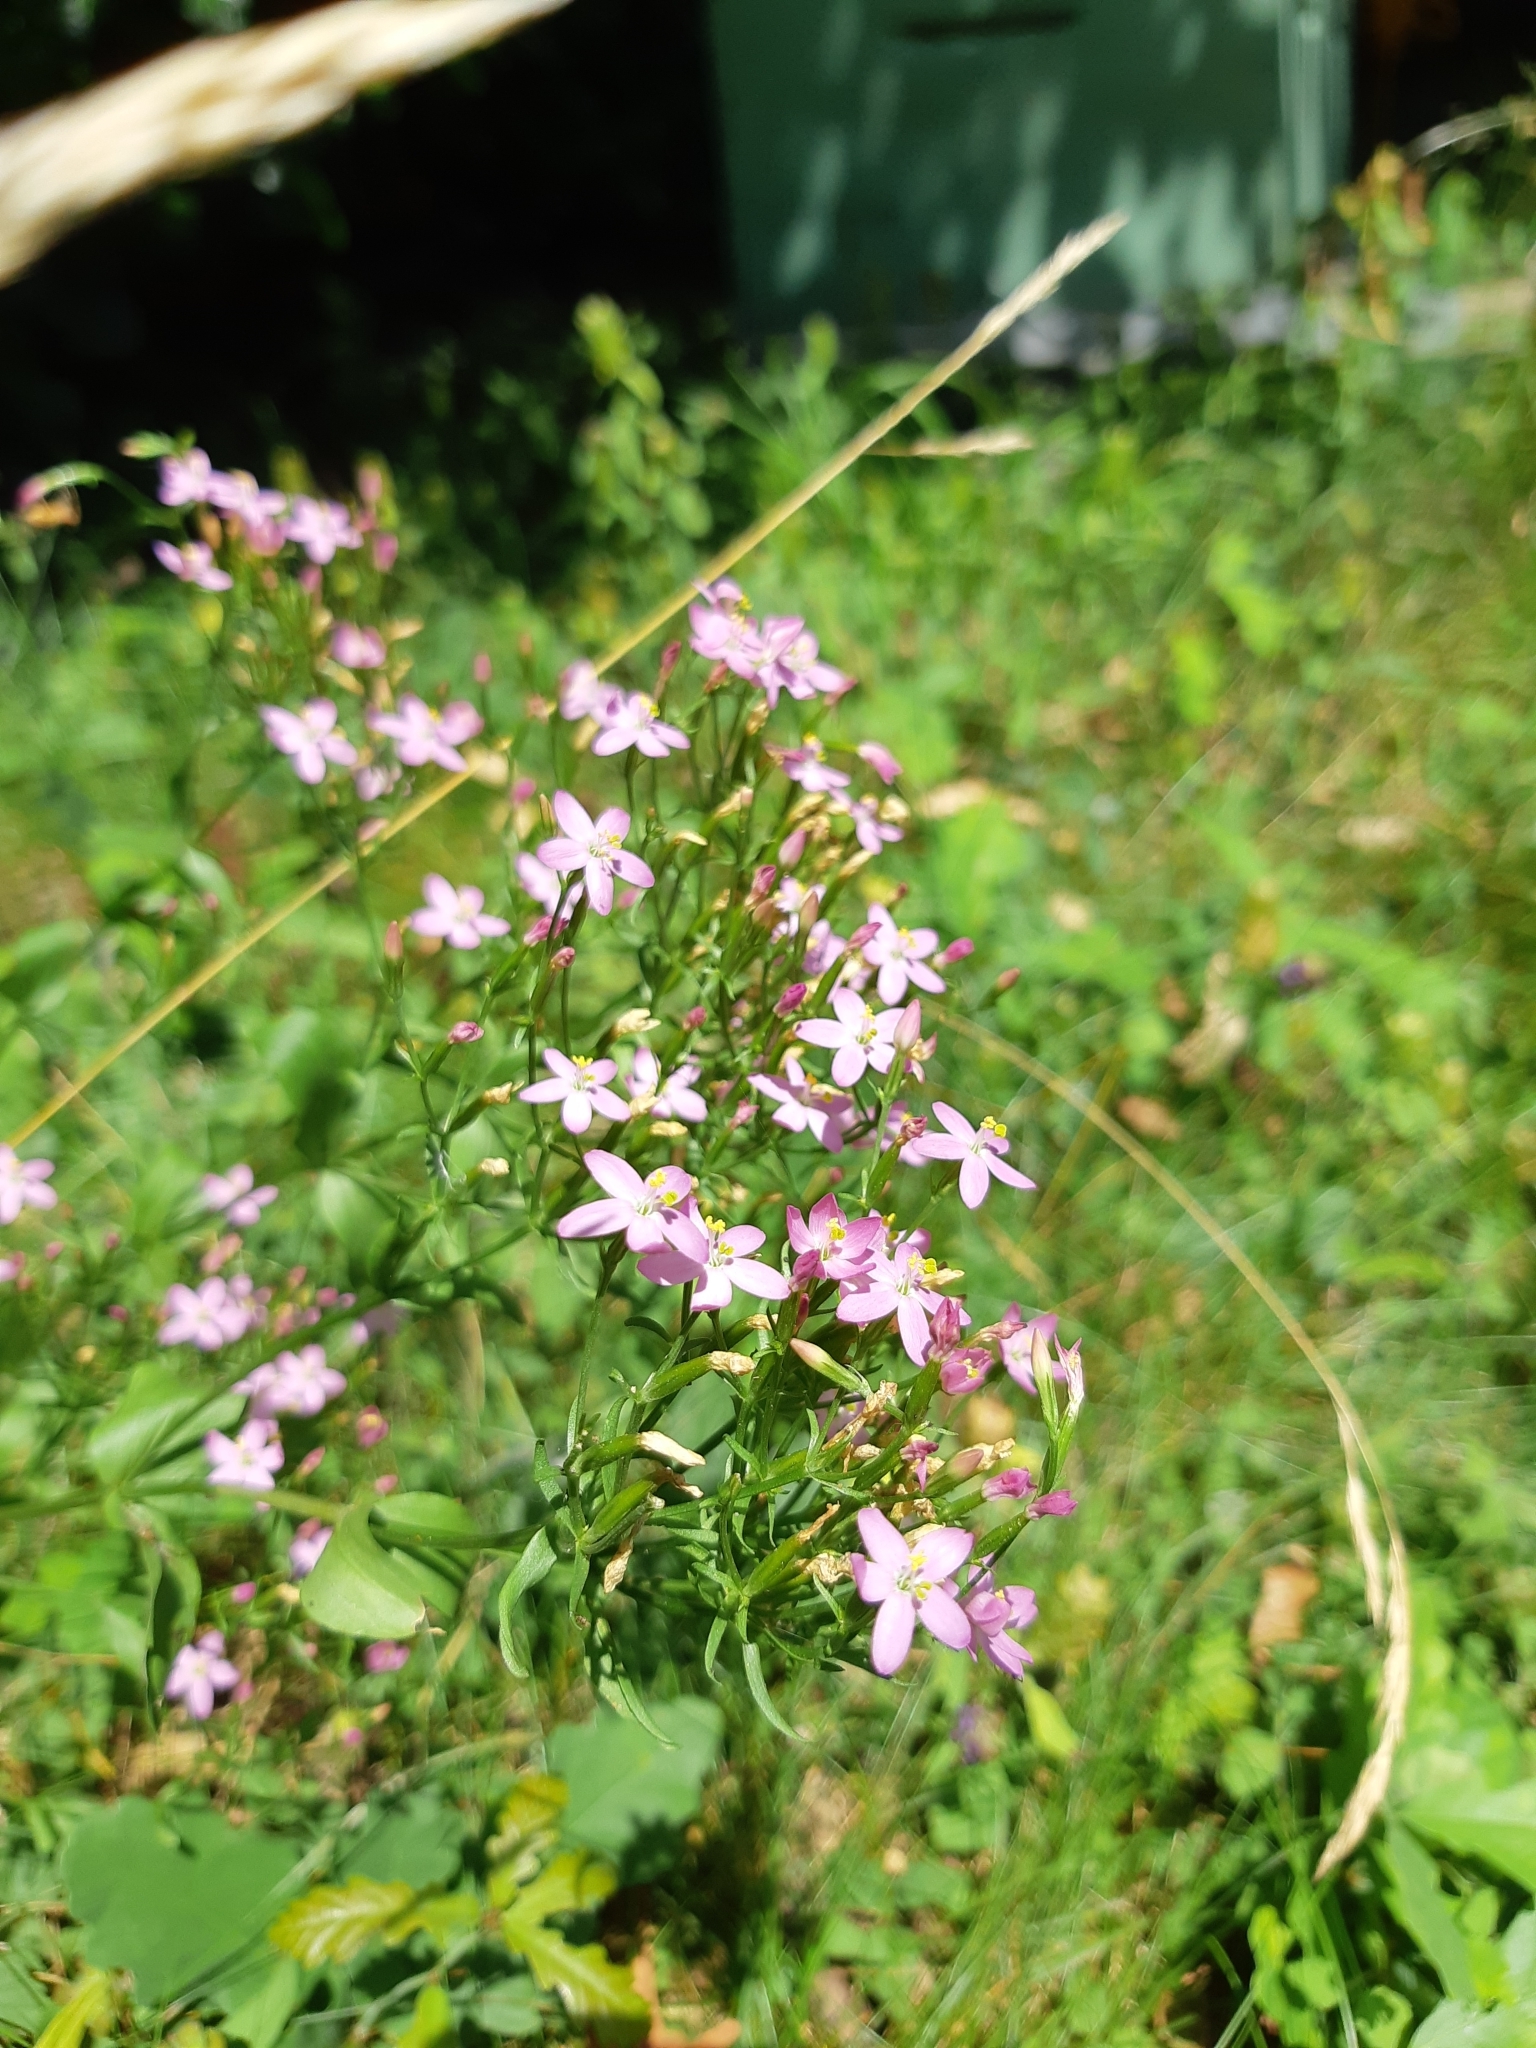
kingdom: Plantae
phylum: Tracheophyta
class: Magnoliopsida
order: Gentianales
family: Gentianaceae
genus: Centaurium
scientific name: Centaurium erythraea
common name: Common centaury
